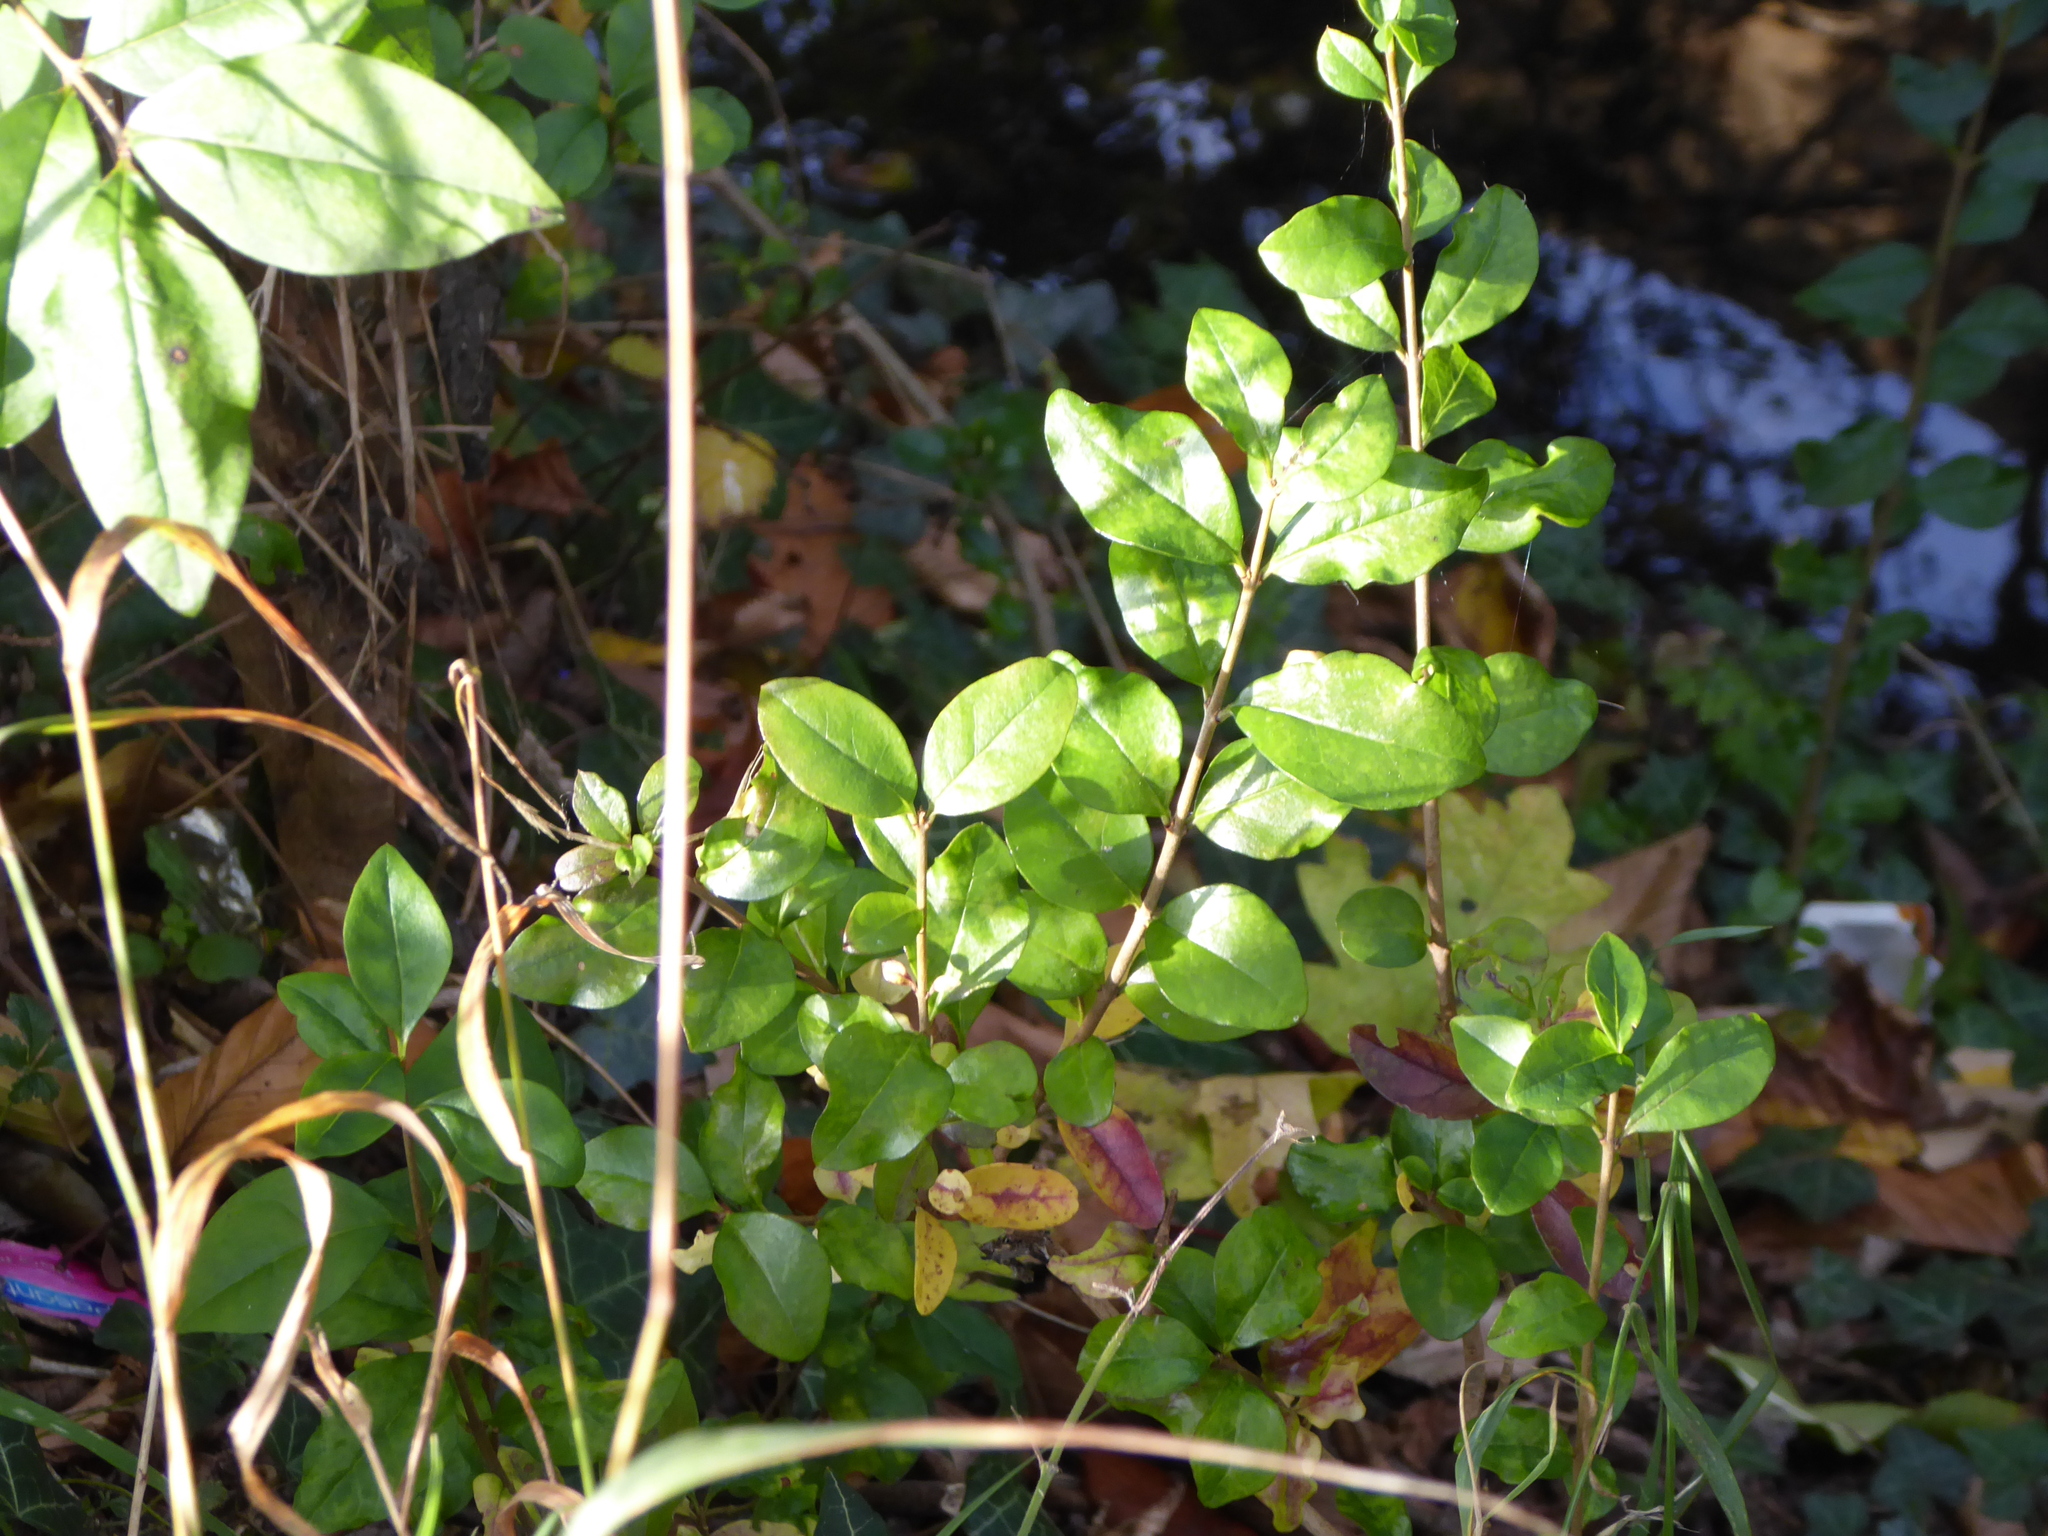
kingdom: Plantae
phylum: Tracheophyta
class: Magnoliopsida
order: Lamiales
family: Oleaceae
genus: Ligustrum
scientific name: Ligustrum ovalifolium
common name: California privet
